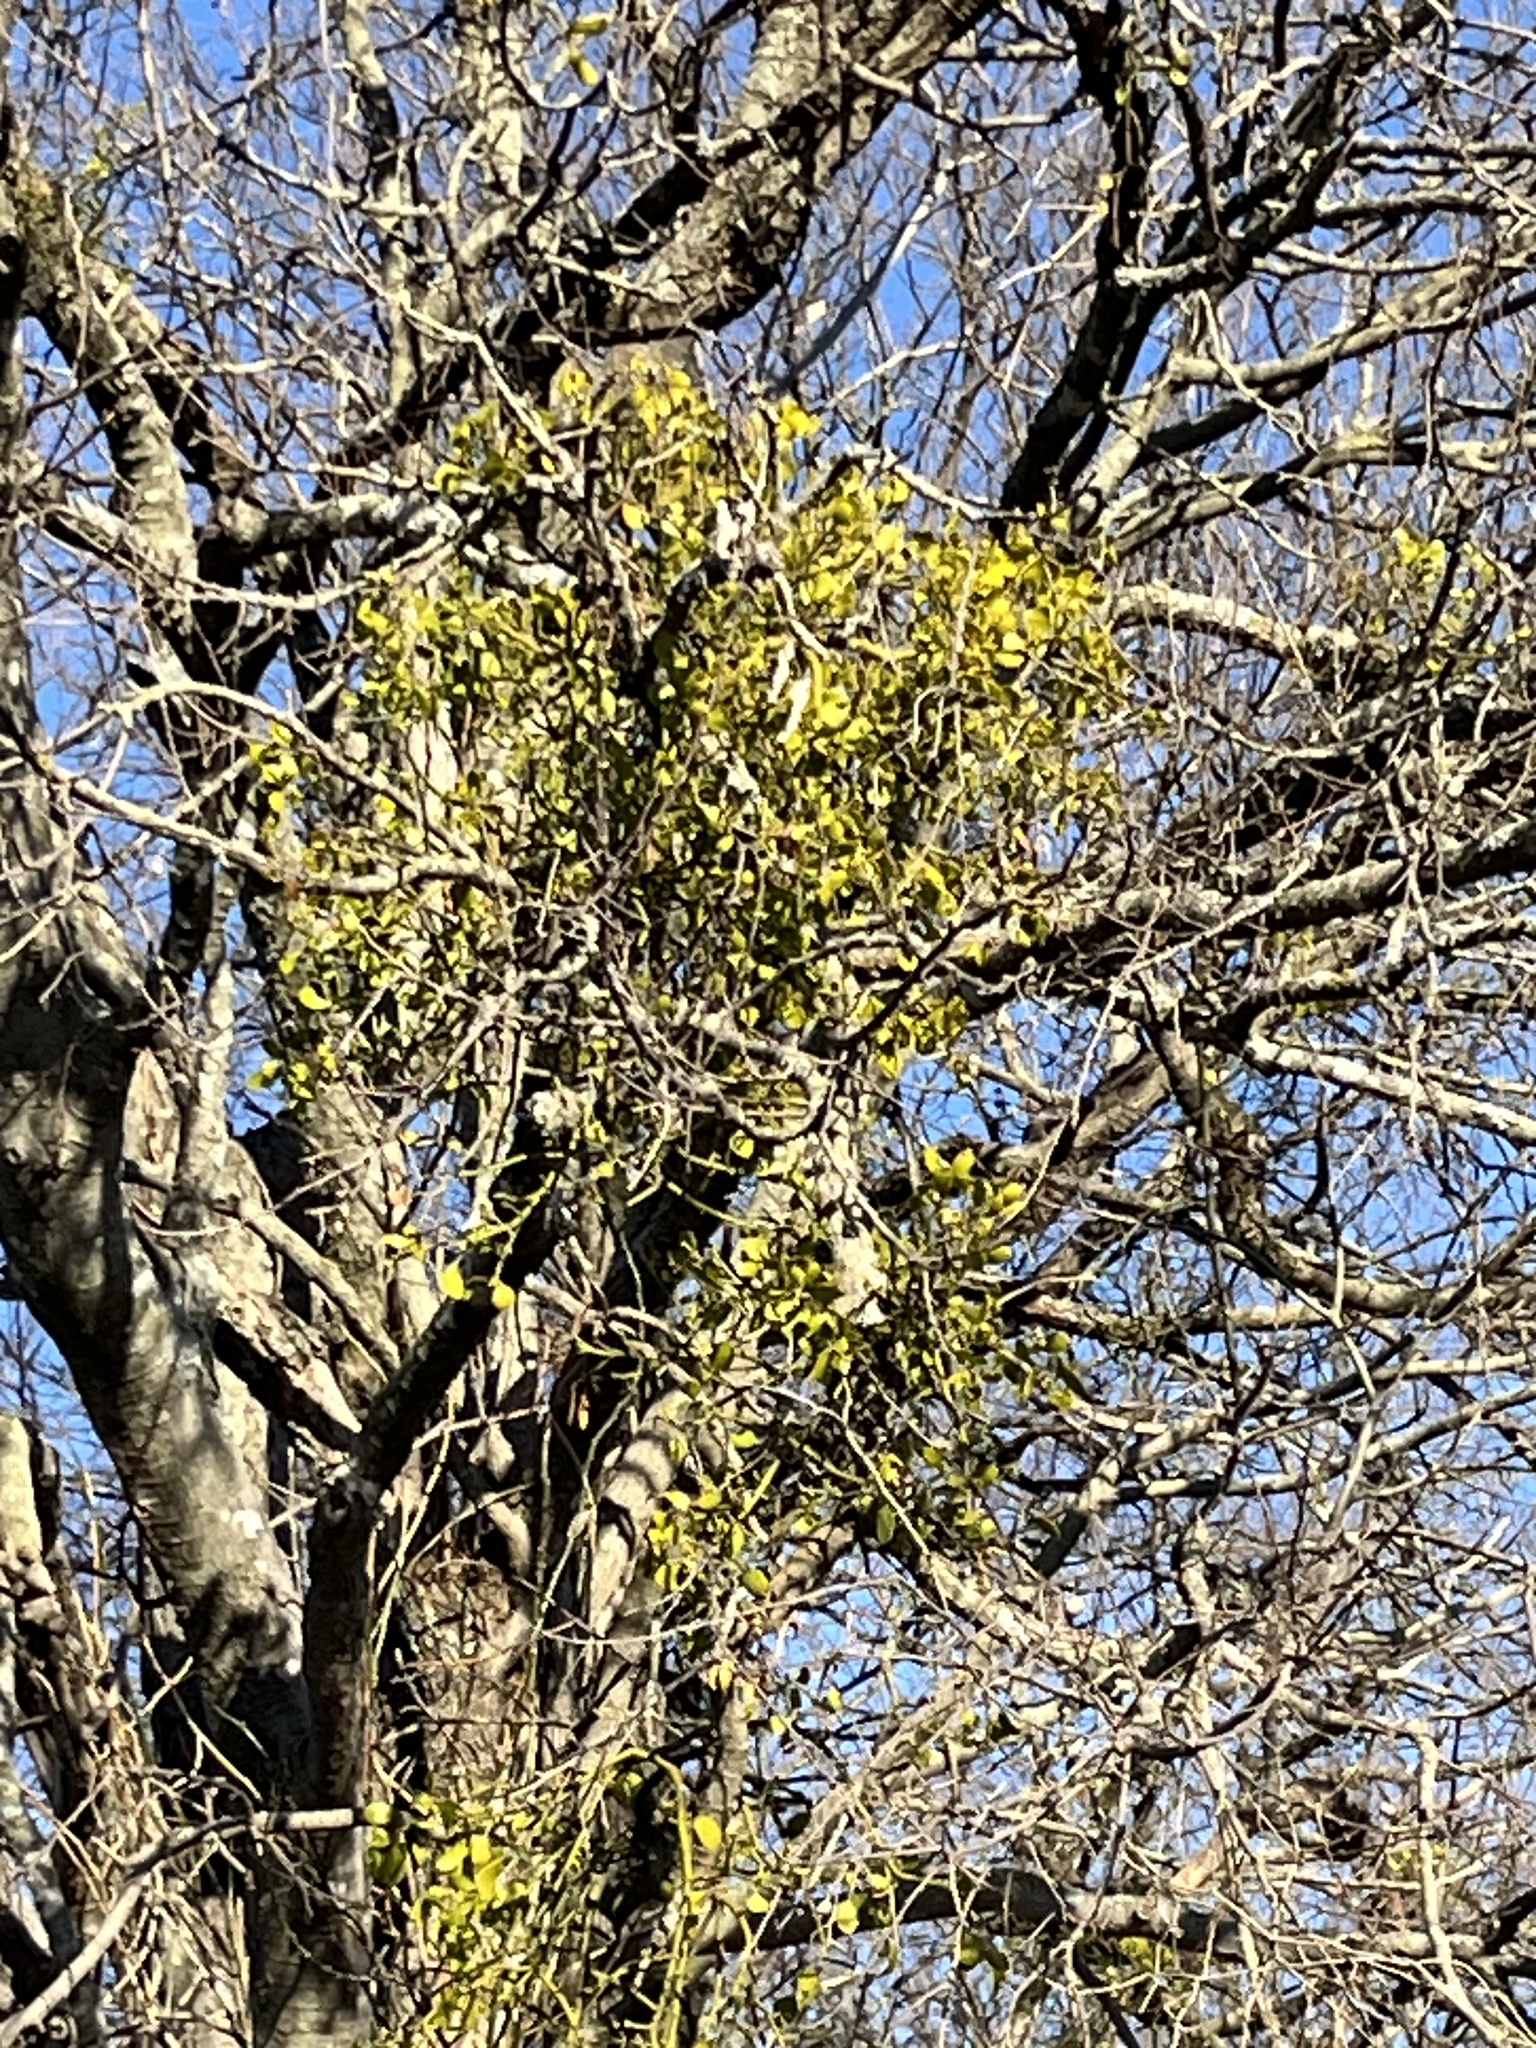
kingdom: Plantae
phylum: Tracheophyta
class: Magnoliopsida
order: Santalales
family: Viscaceae
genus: Phoradendron
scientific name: Phoradendron leucarpum
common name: Pacific mistletoe
